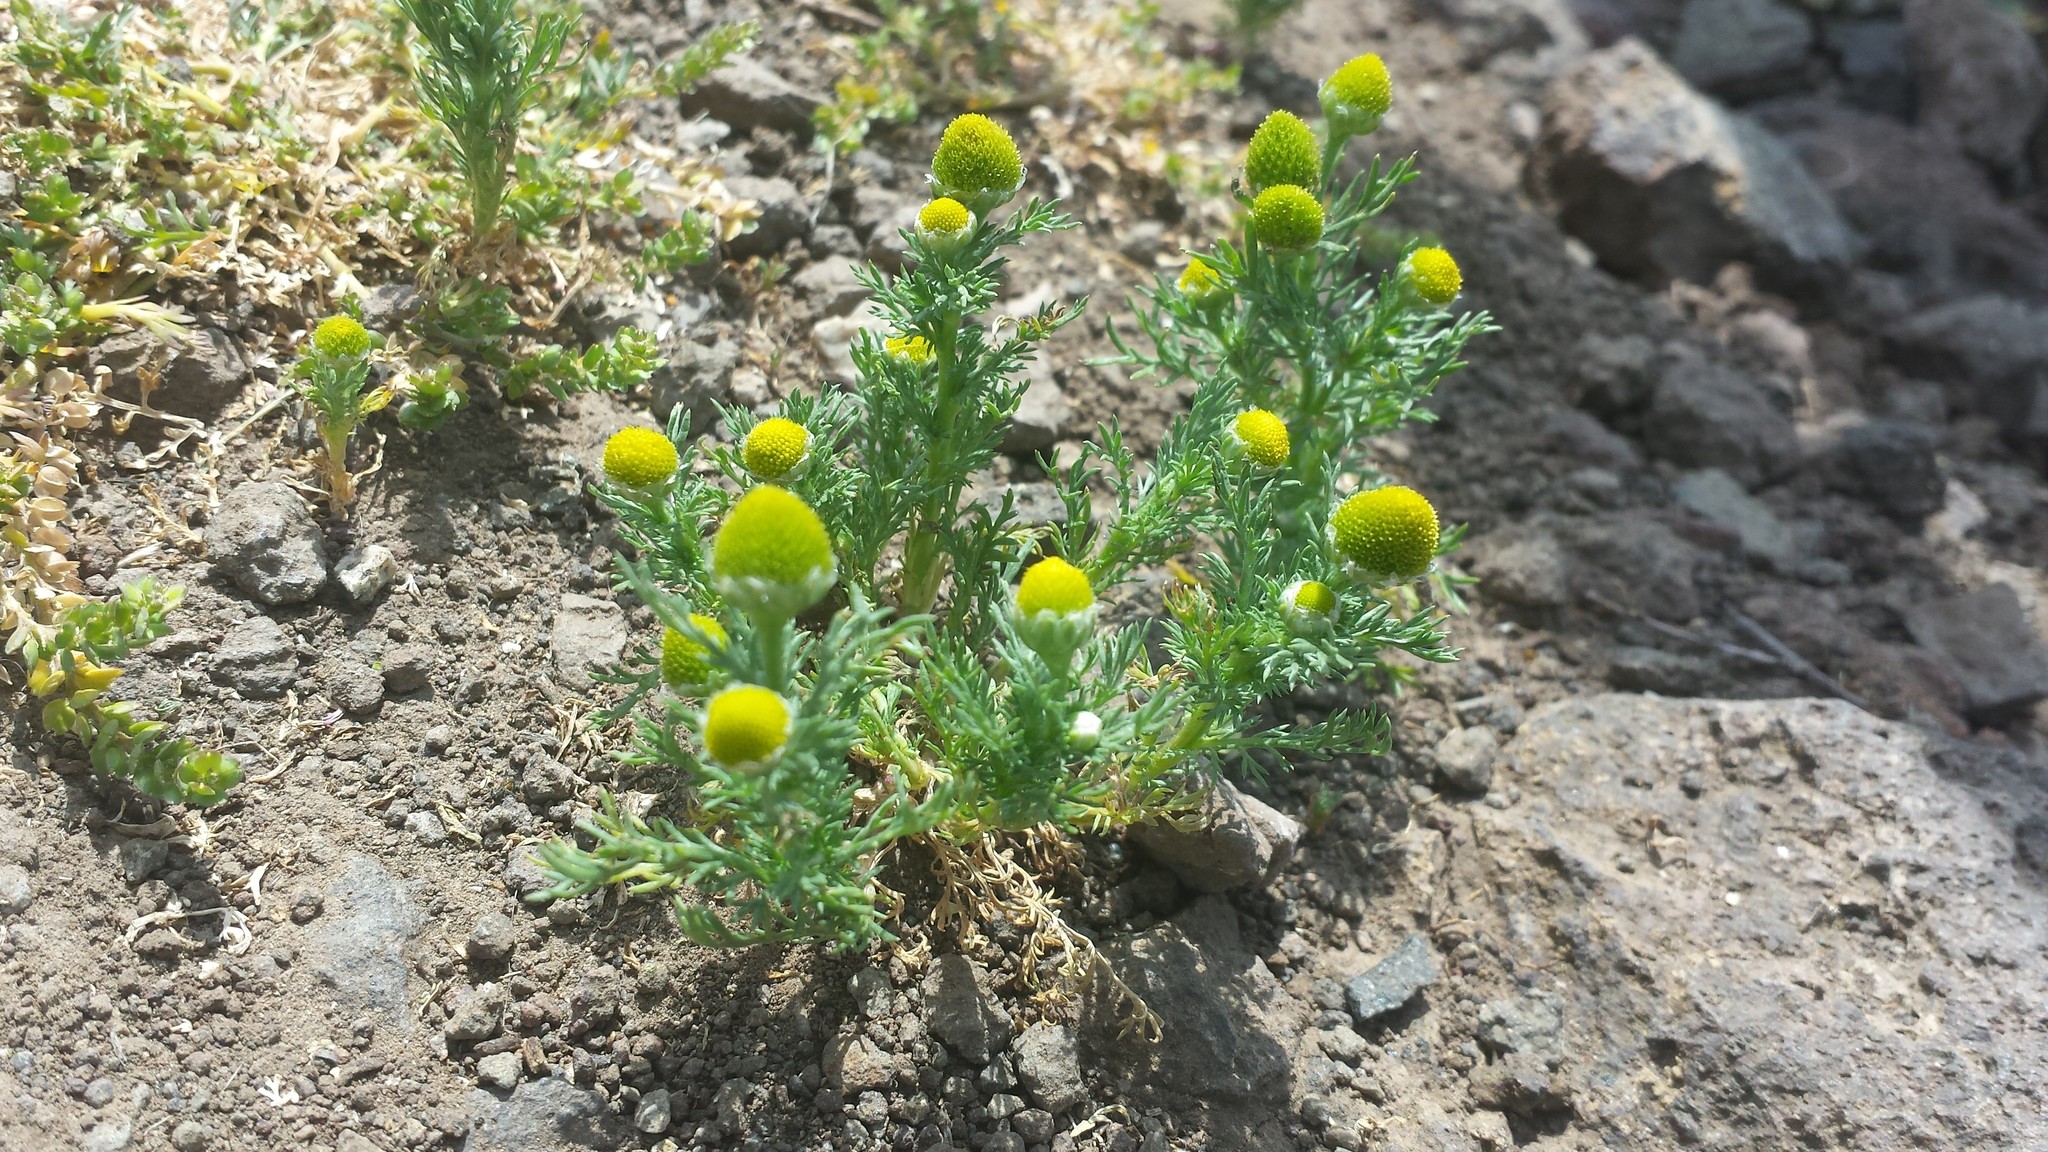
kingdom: Plantae
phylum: Tracheophyta
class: Magnoliopsida
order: Asterales
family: Asteraceae
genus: Matricaria
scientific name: Matricaria discoidea
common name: Disc mayweed
